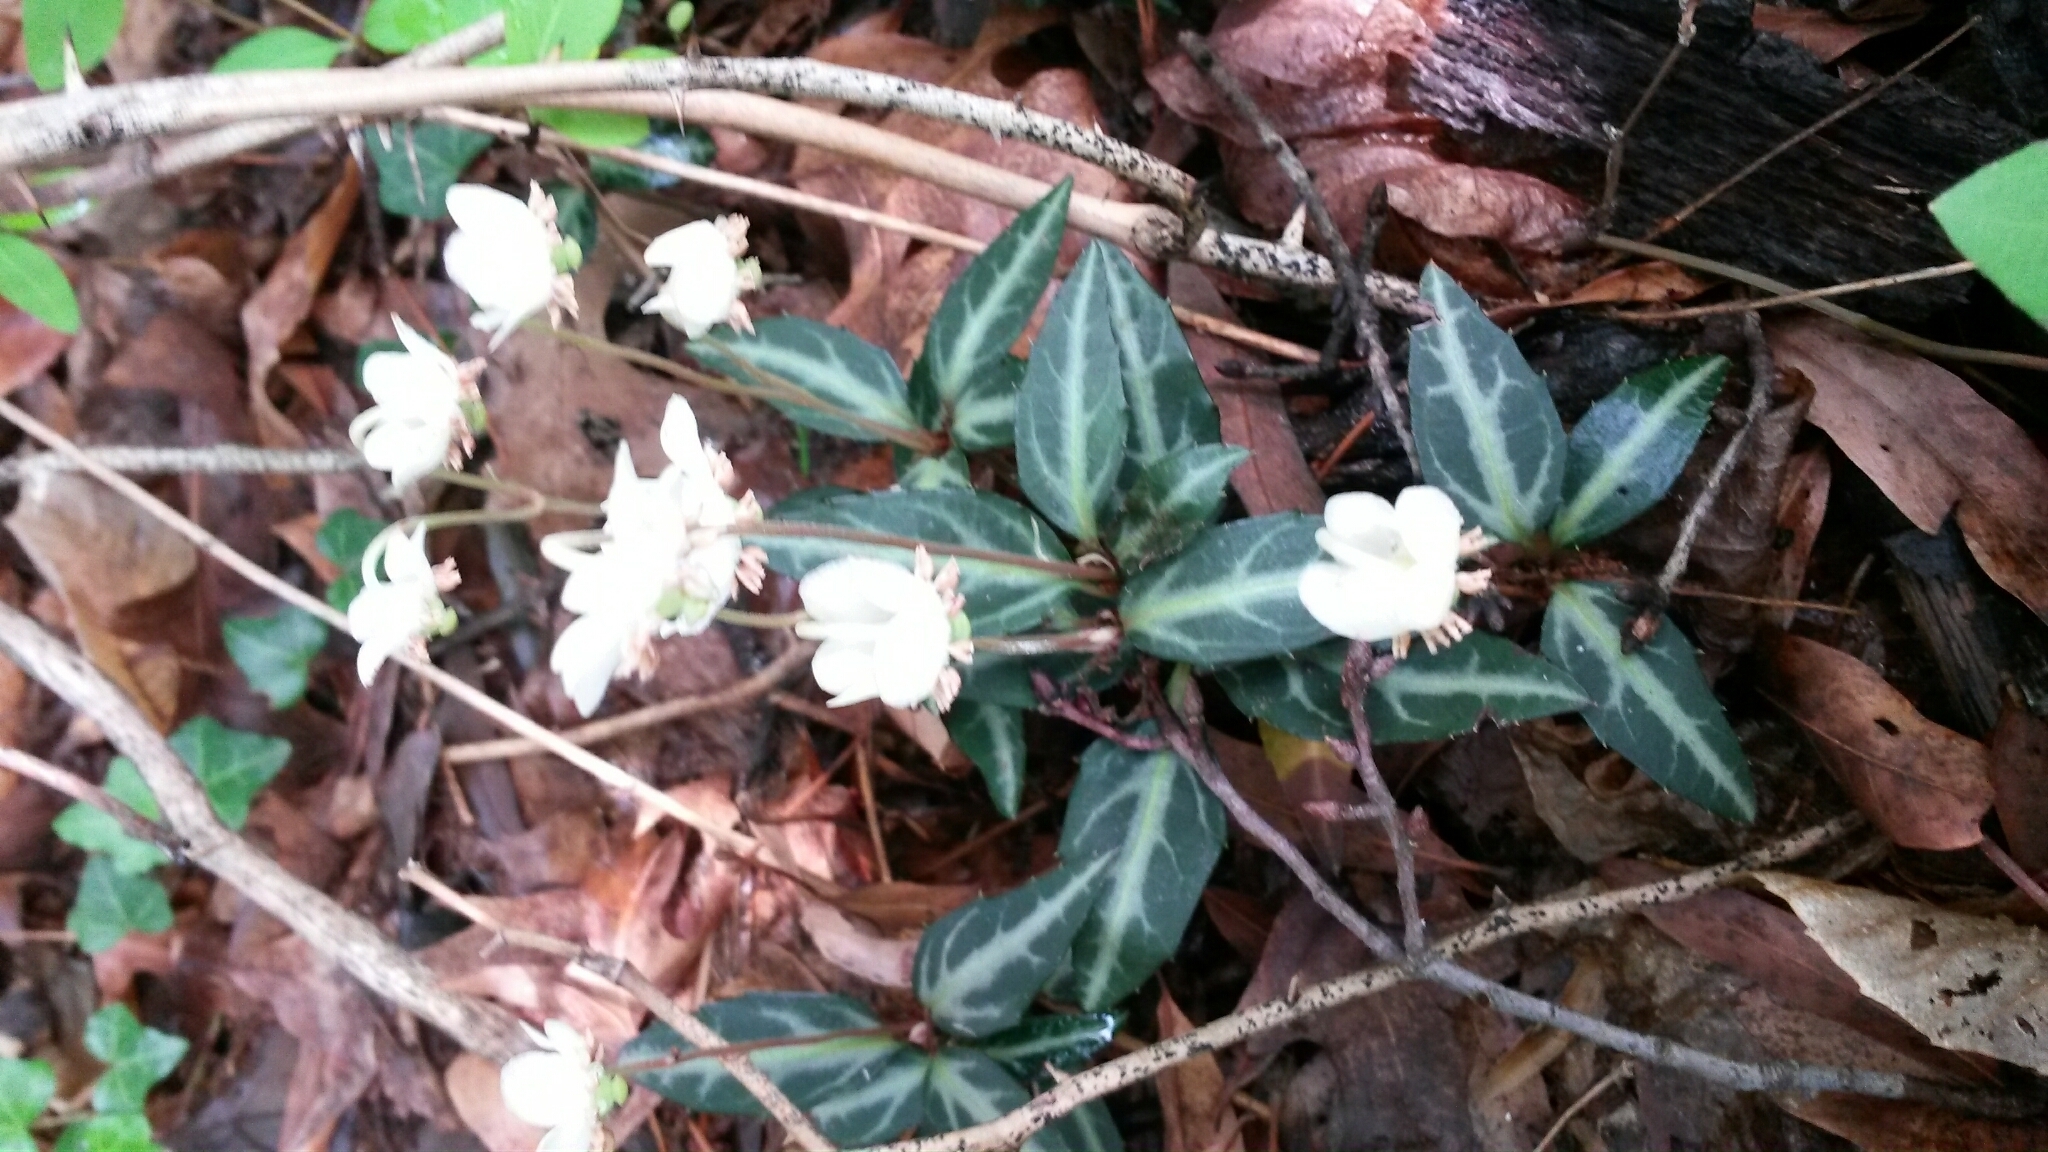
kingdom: Plantae
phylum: Tracheophyta
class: Magnoliopsida
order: Ericales
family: Ericaceae
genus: Chimaphila
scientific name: Chimaphila maculata
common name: Spotted pipsissewa
